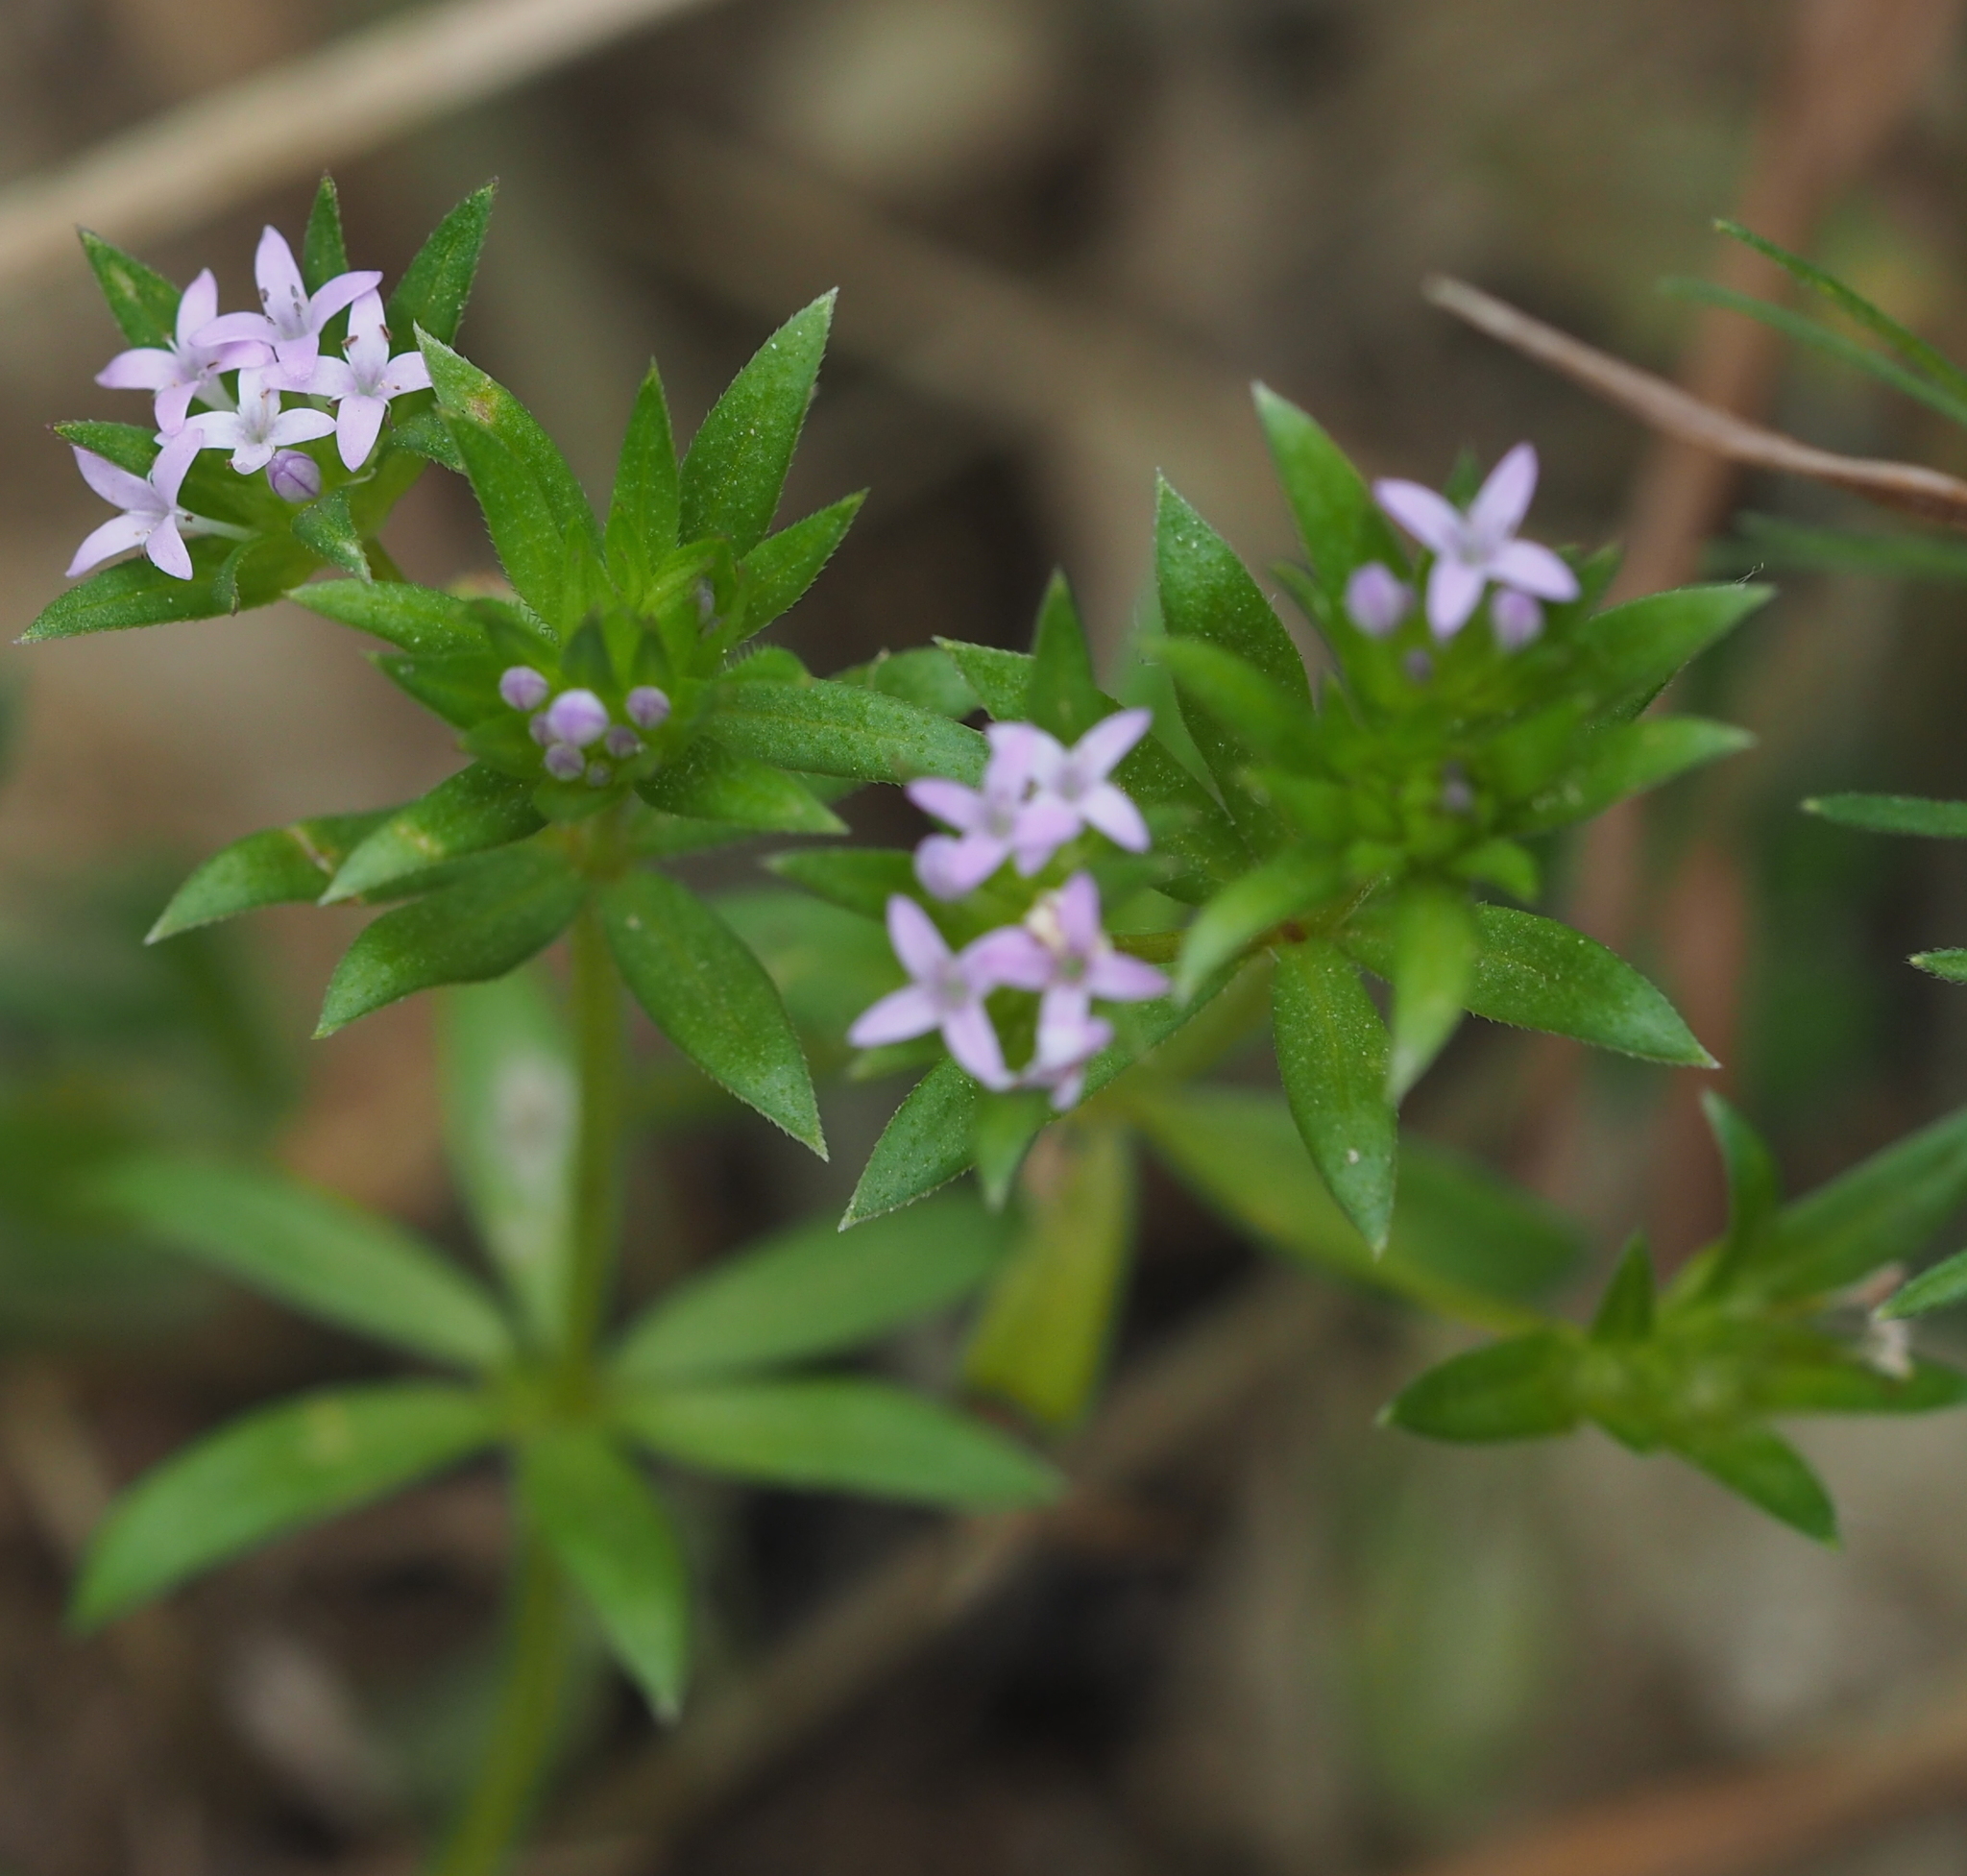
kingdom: Plantae
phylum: Tracheophyta
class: Magnoliopsida
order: Gentianales
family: Rubiaceae
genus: Sherardia
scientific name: Sherardia arvensis
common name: Field madder
